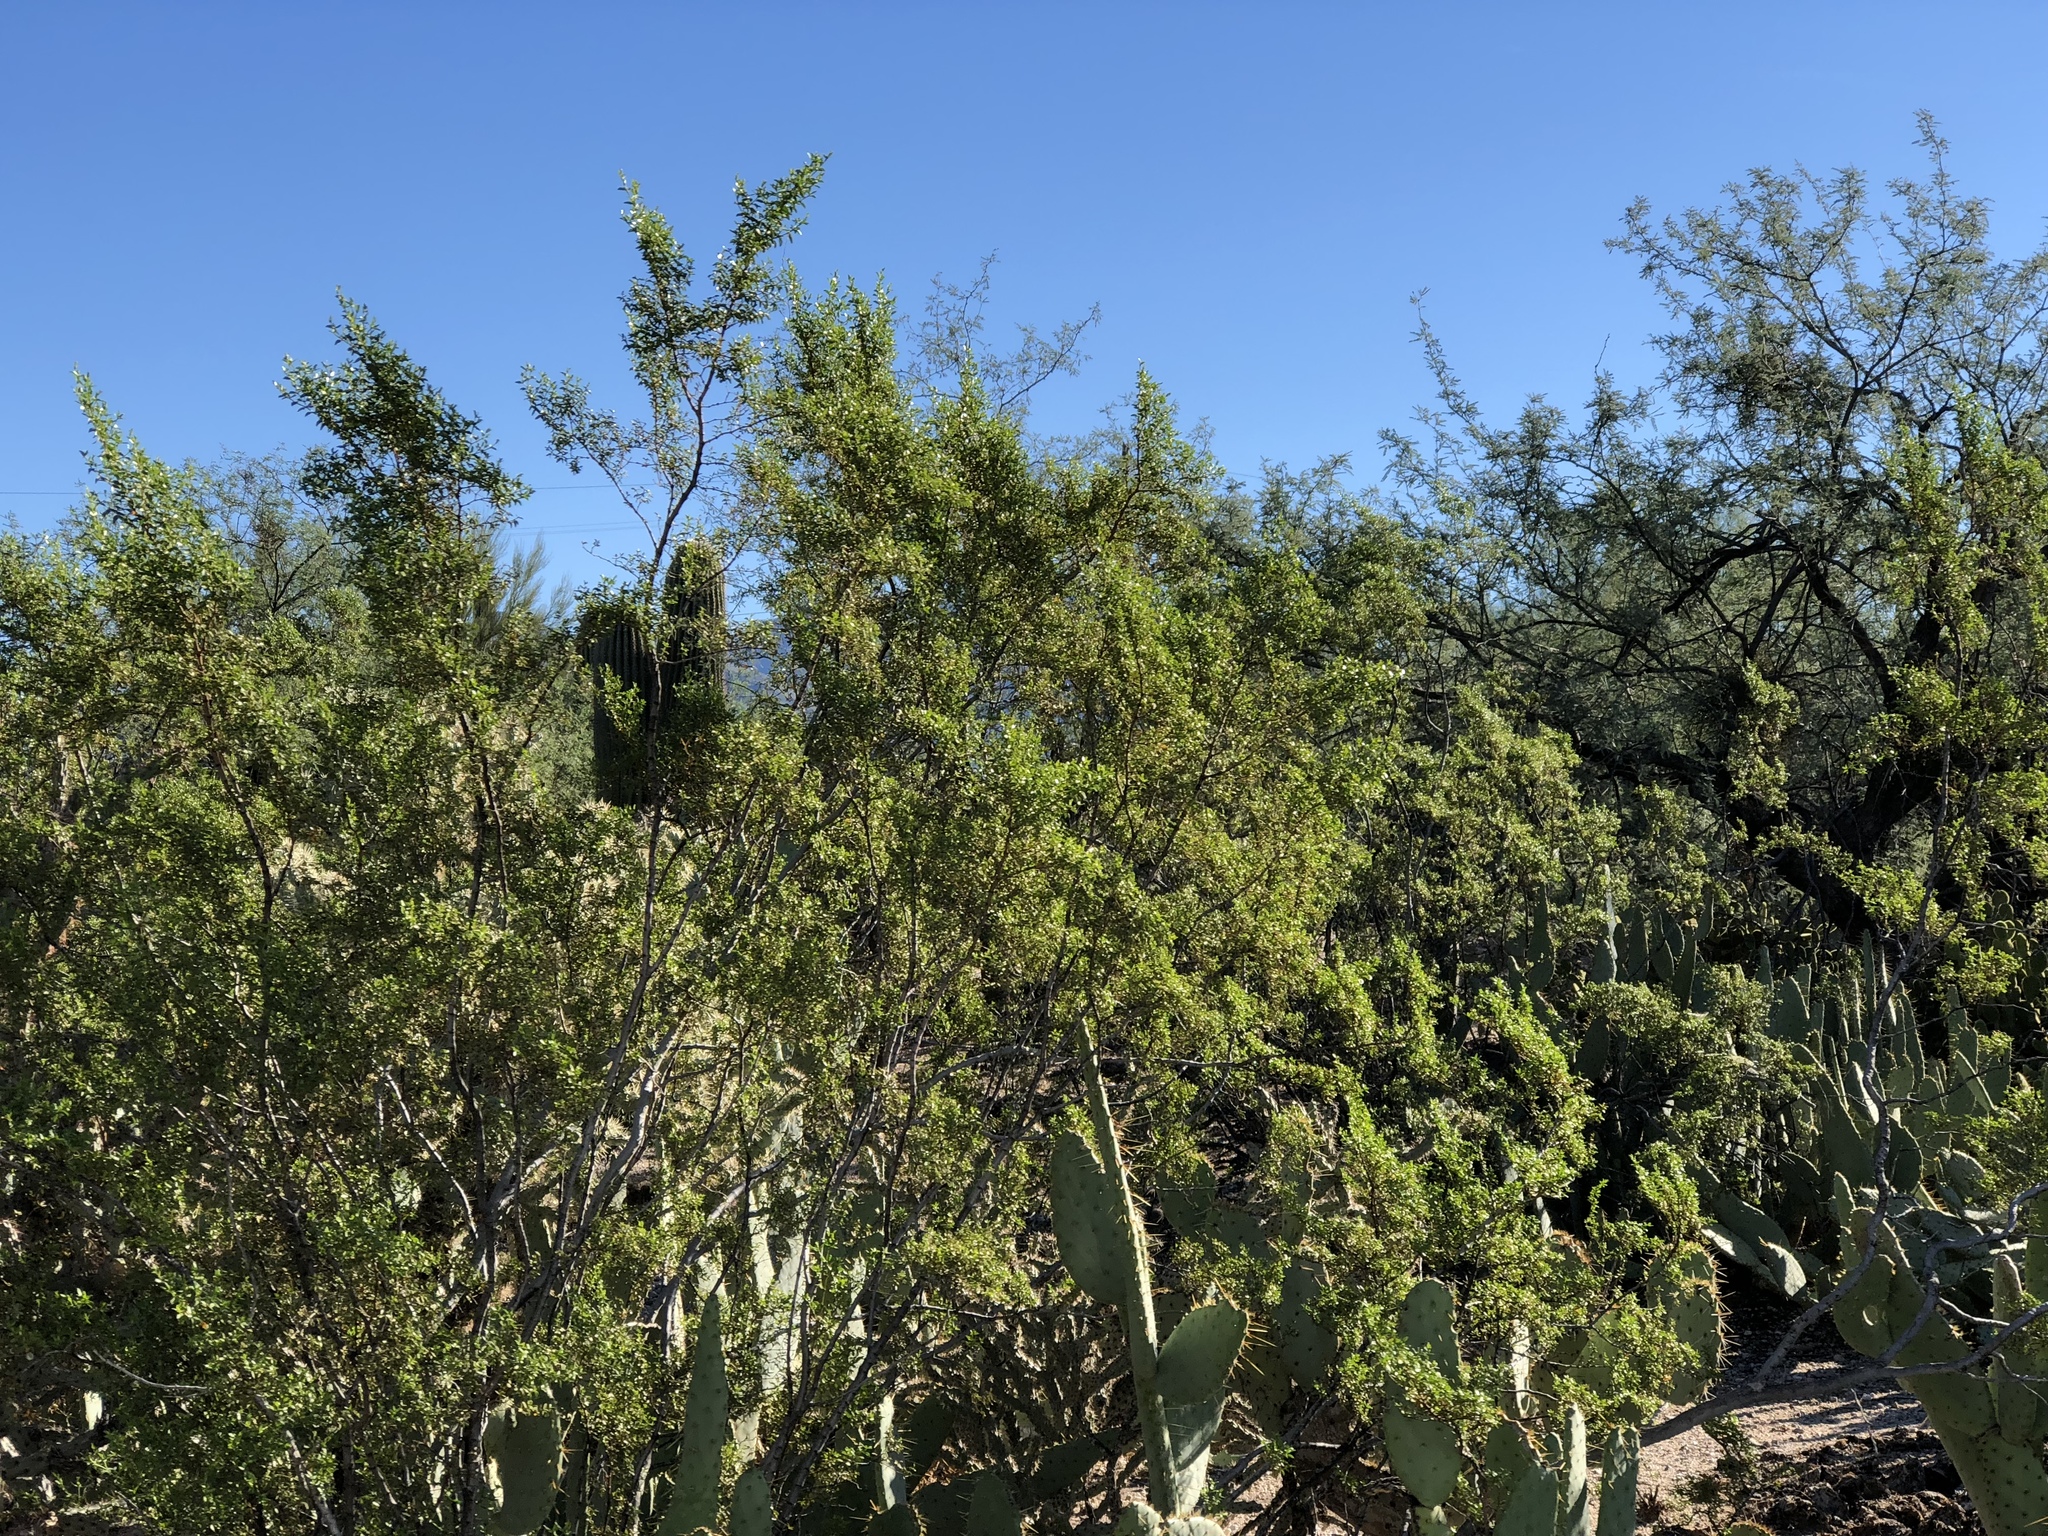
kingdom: Plantae
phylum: Tracheophyta
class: Magnoliopsida
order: Zygophyllales
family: Zygophyllaceae
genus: Larrea
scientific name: Larrea tridentata
